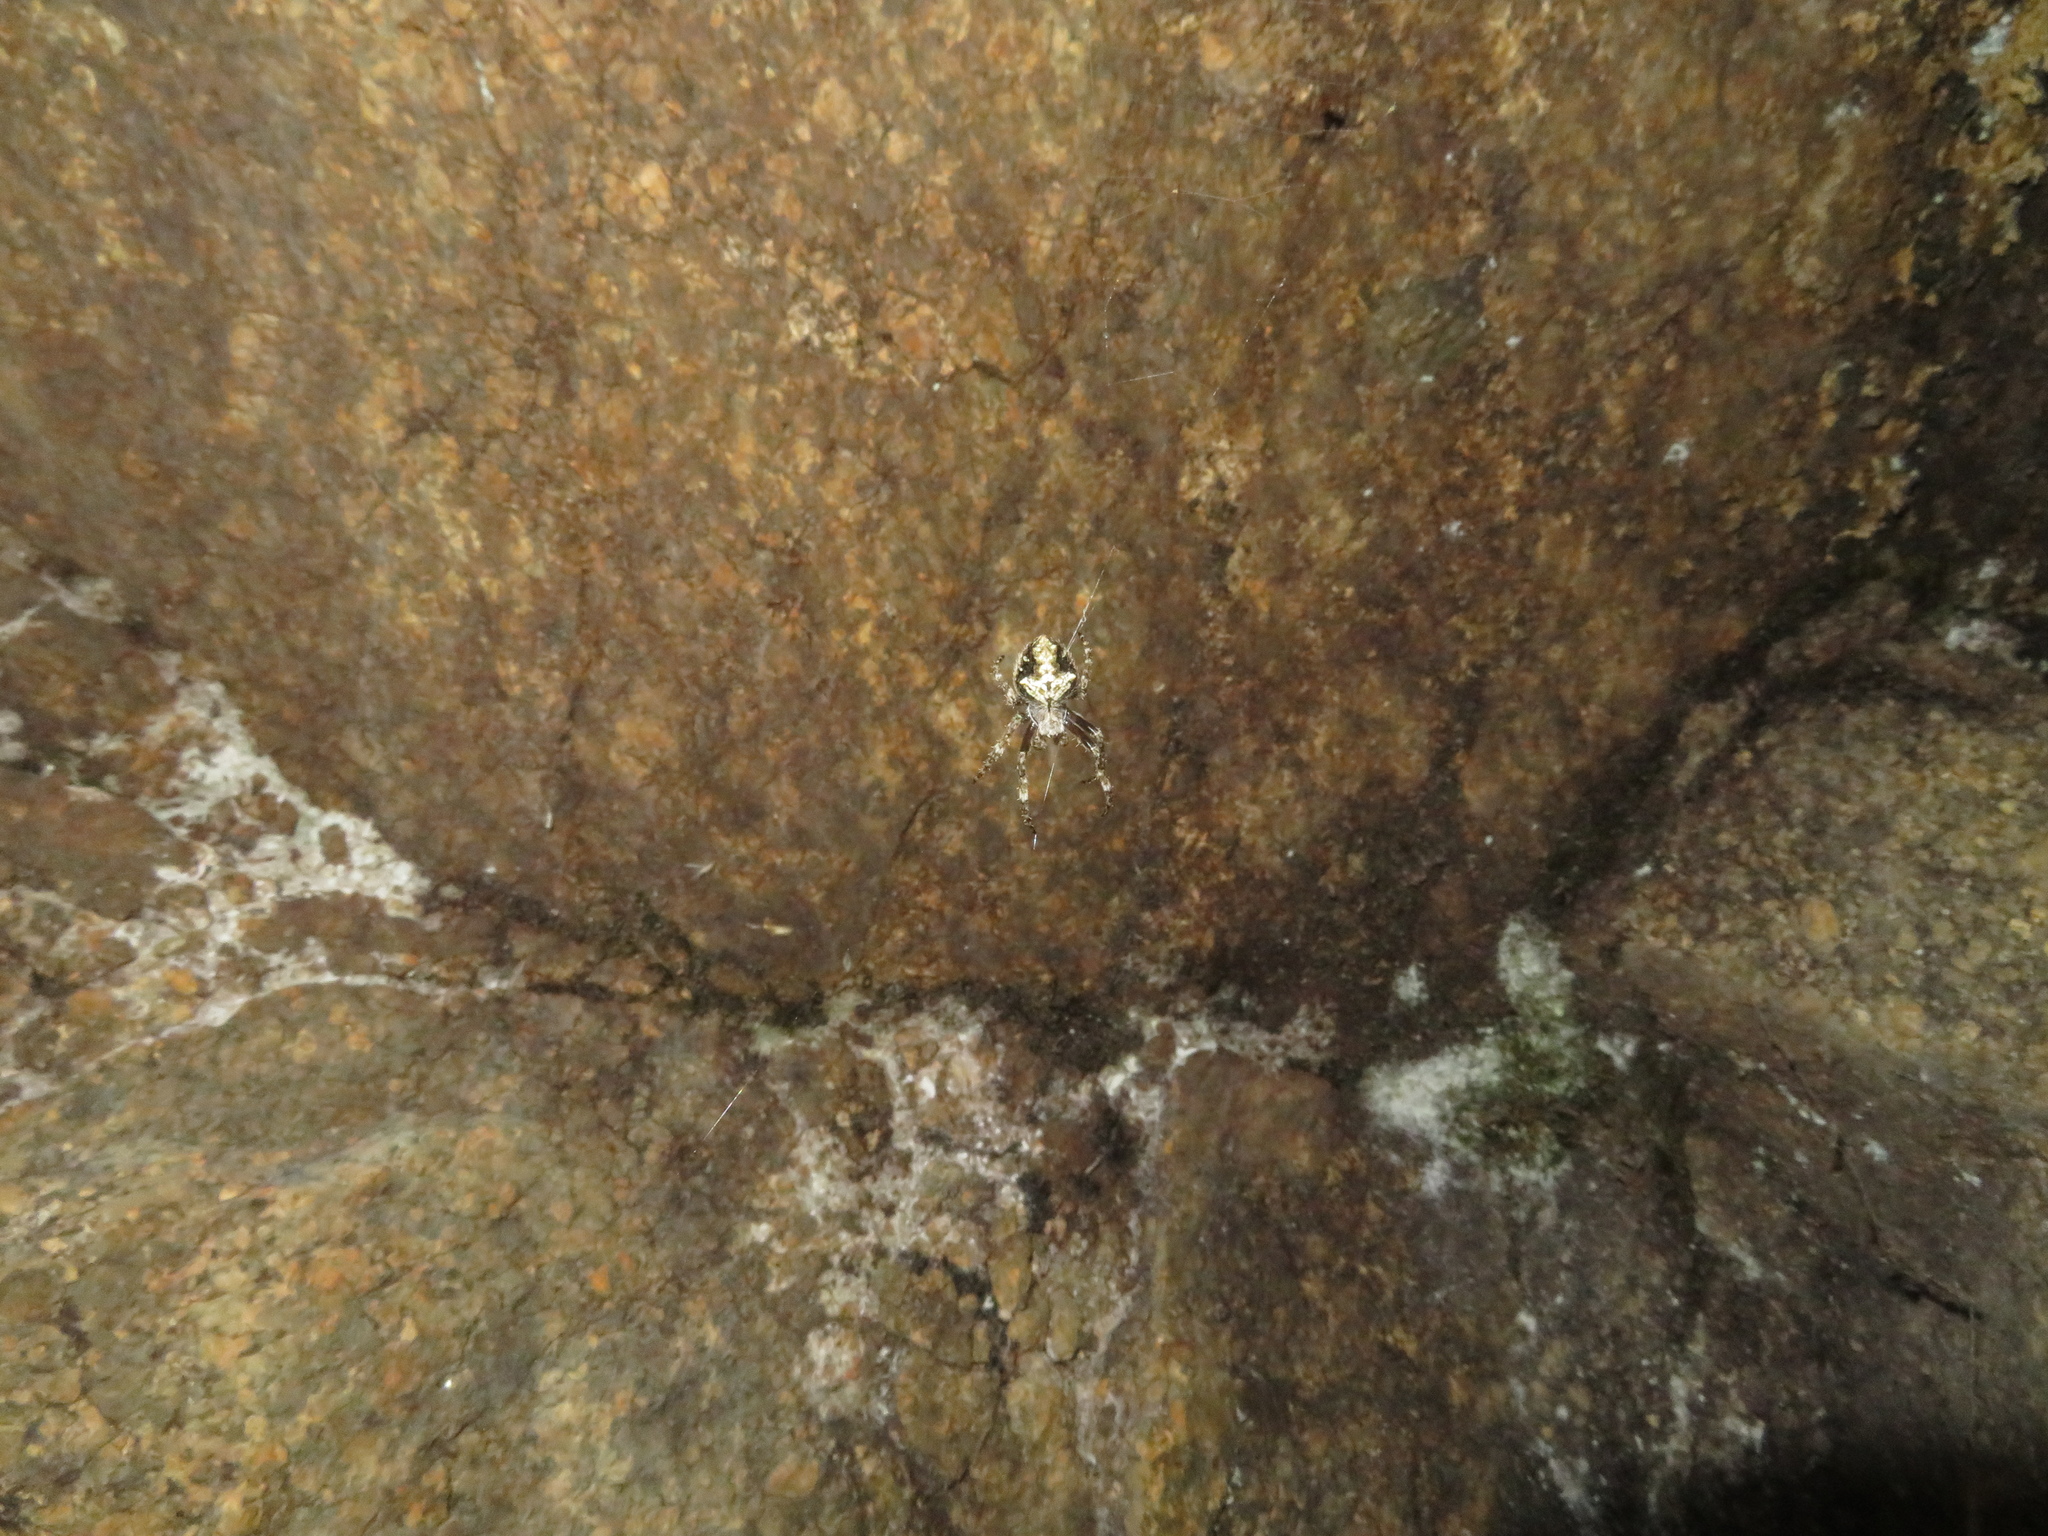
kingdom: Animalia
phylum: Arthropoda
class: Arachnida
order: Araneae
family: Araneidae
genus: Eriophora
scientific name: Eriophora pustulosa
